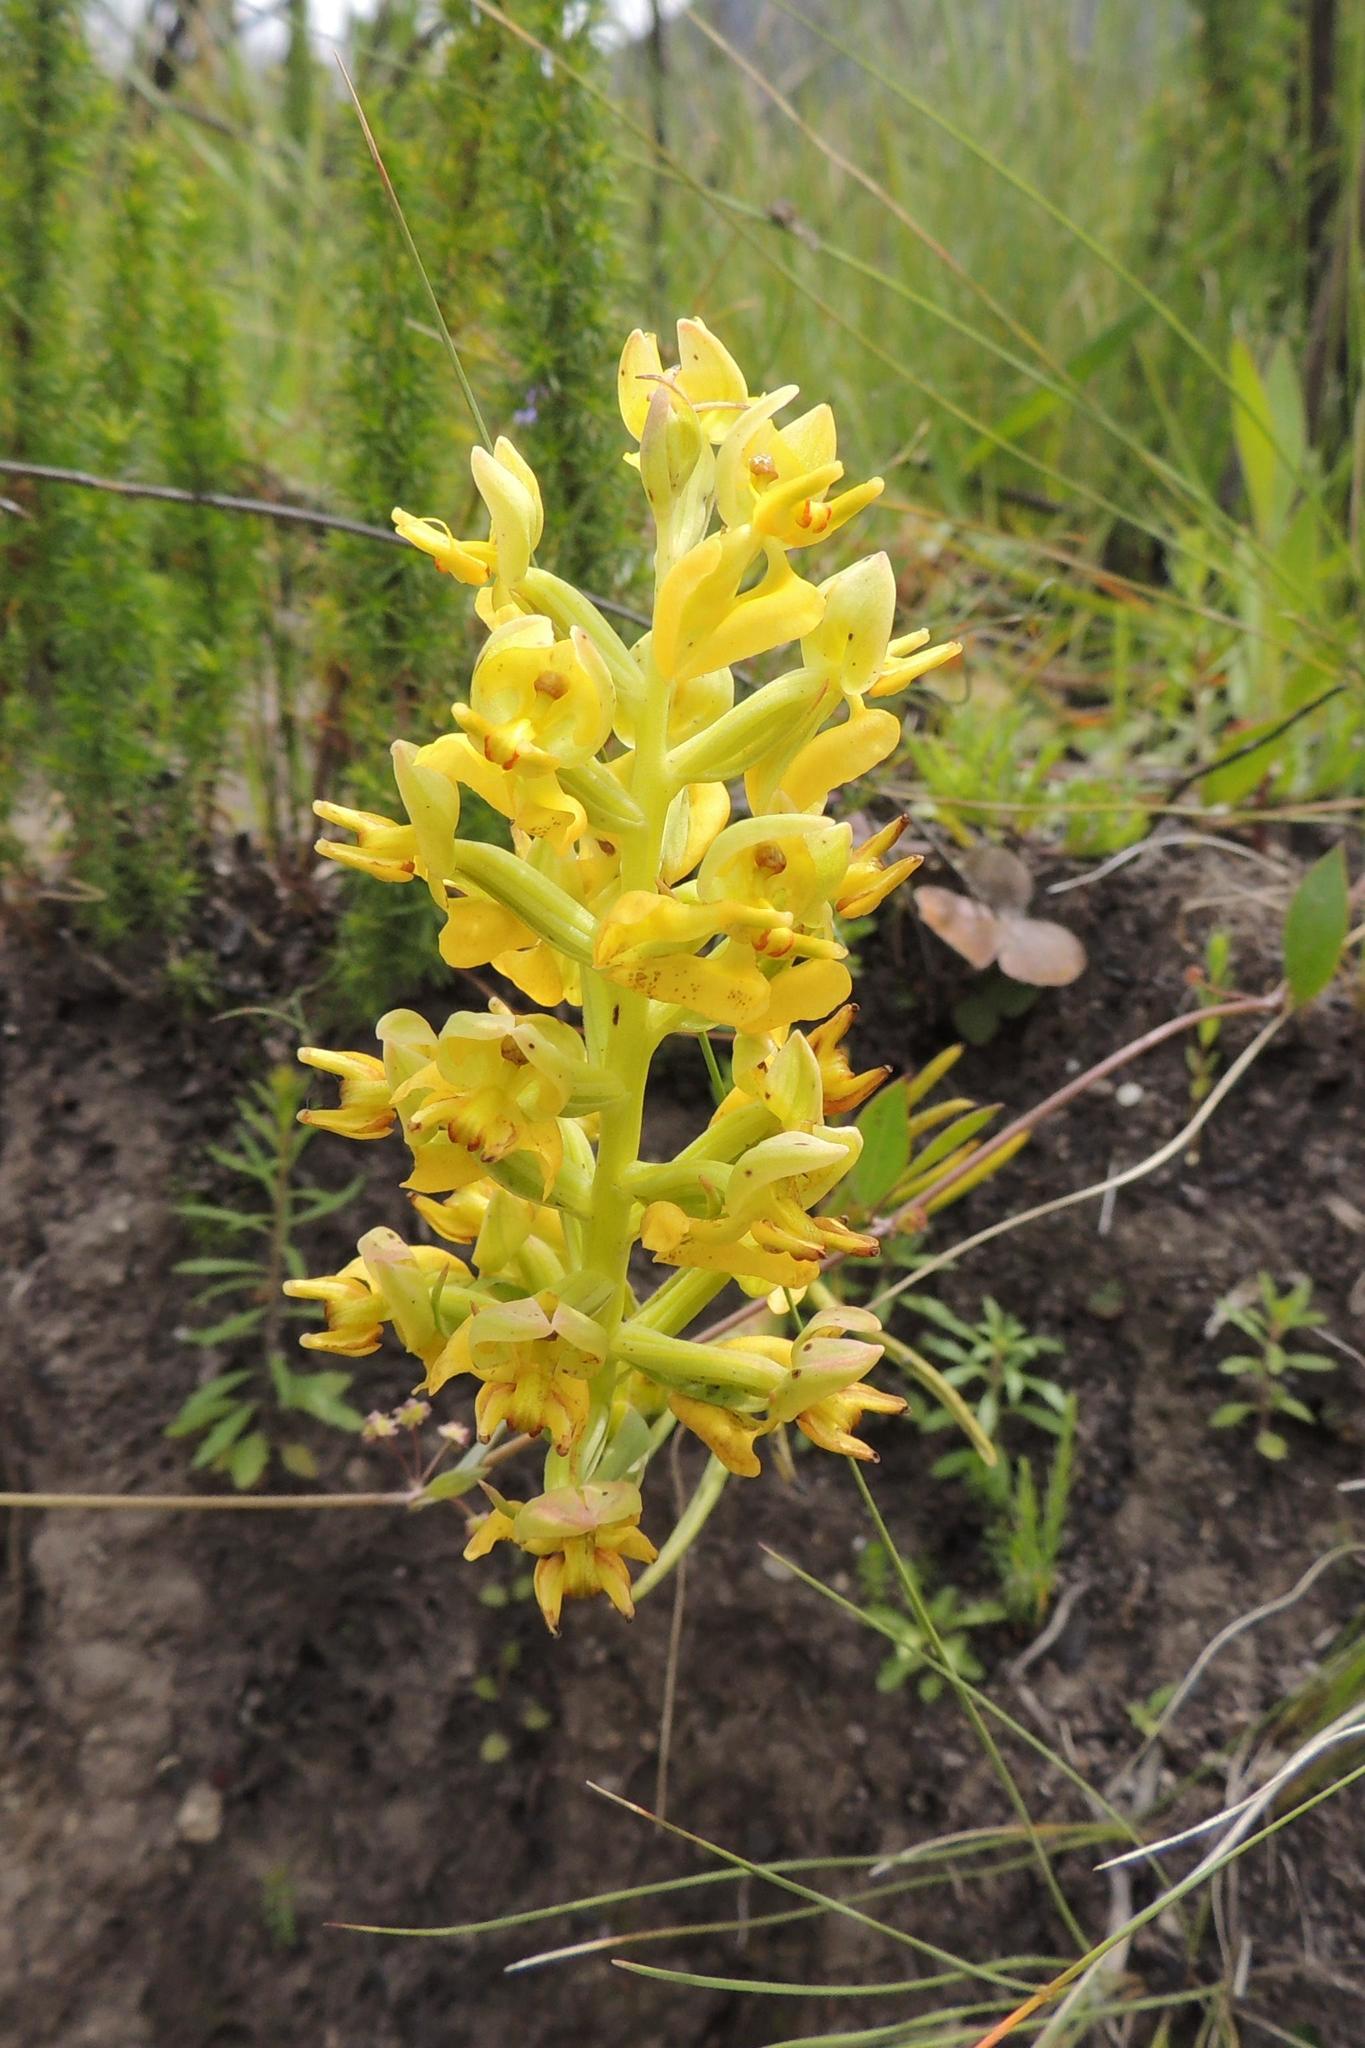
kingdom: Plantae
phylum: Tracheophyta
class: Liliopsida
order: Asparagales
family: Orchidaceae
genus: Ceratandra
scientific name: Ceratandra atrata
